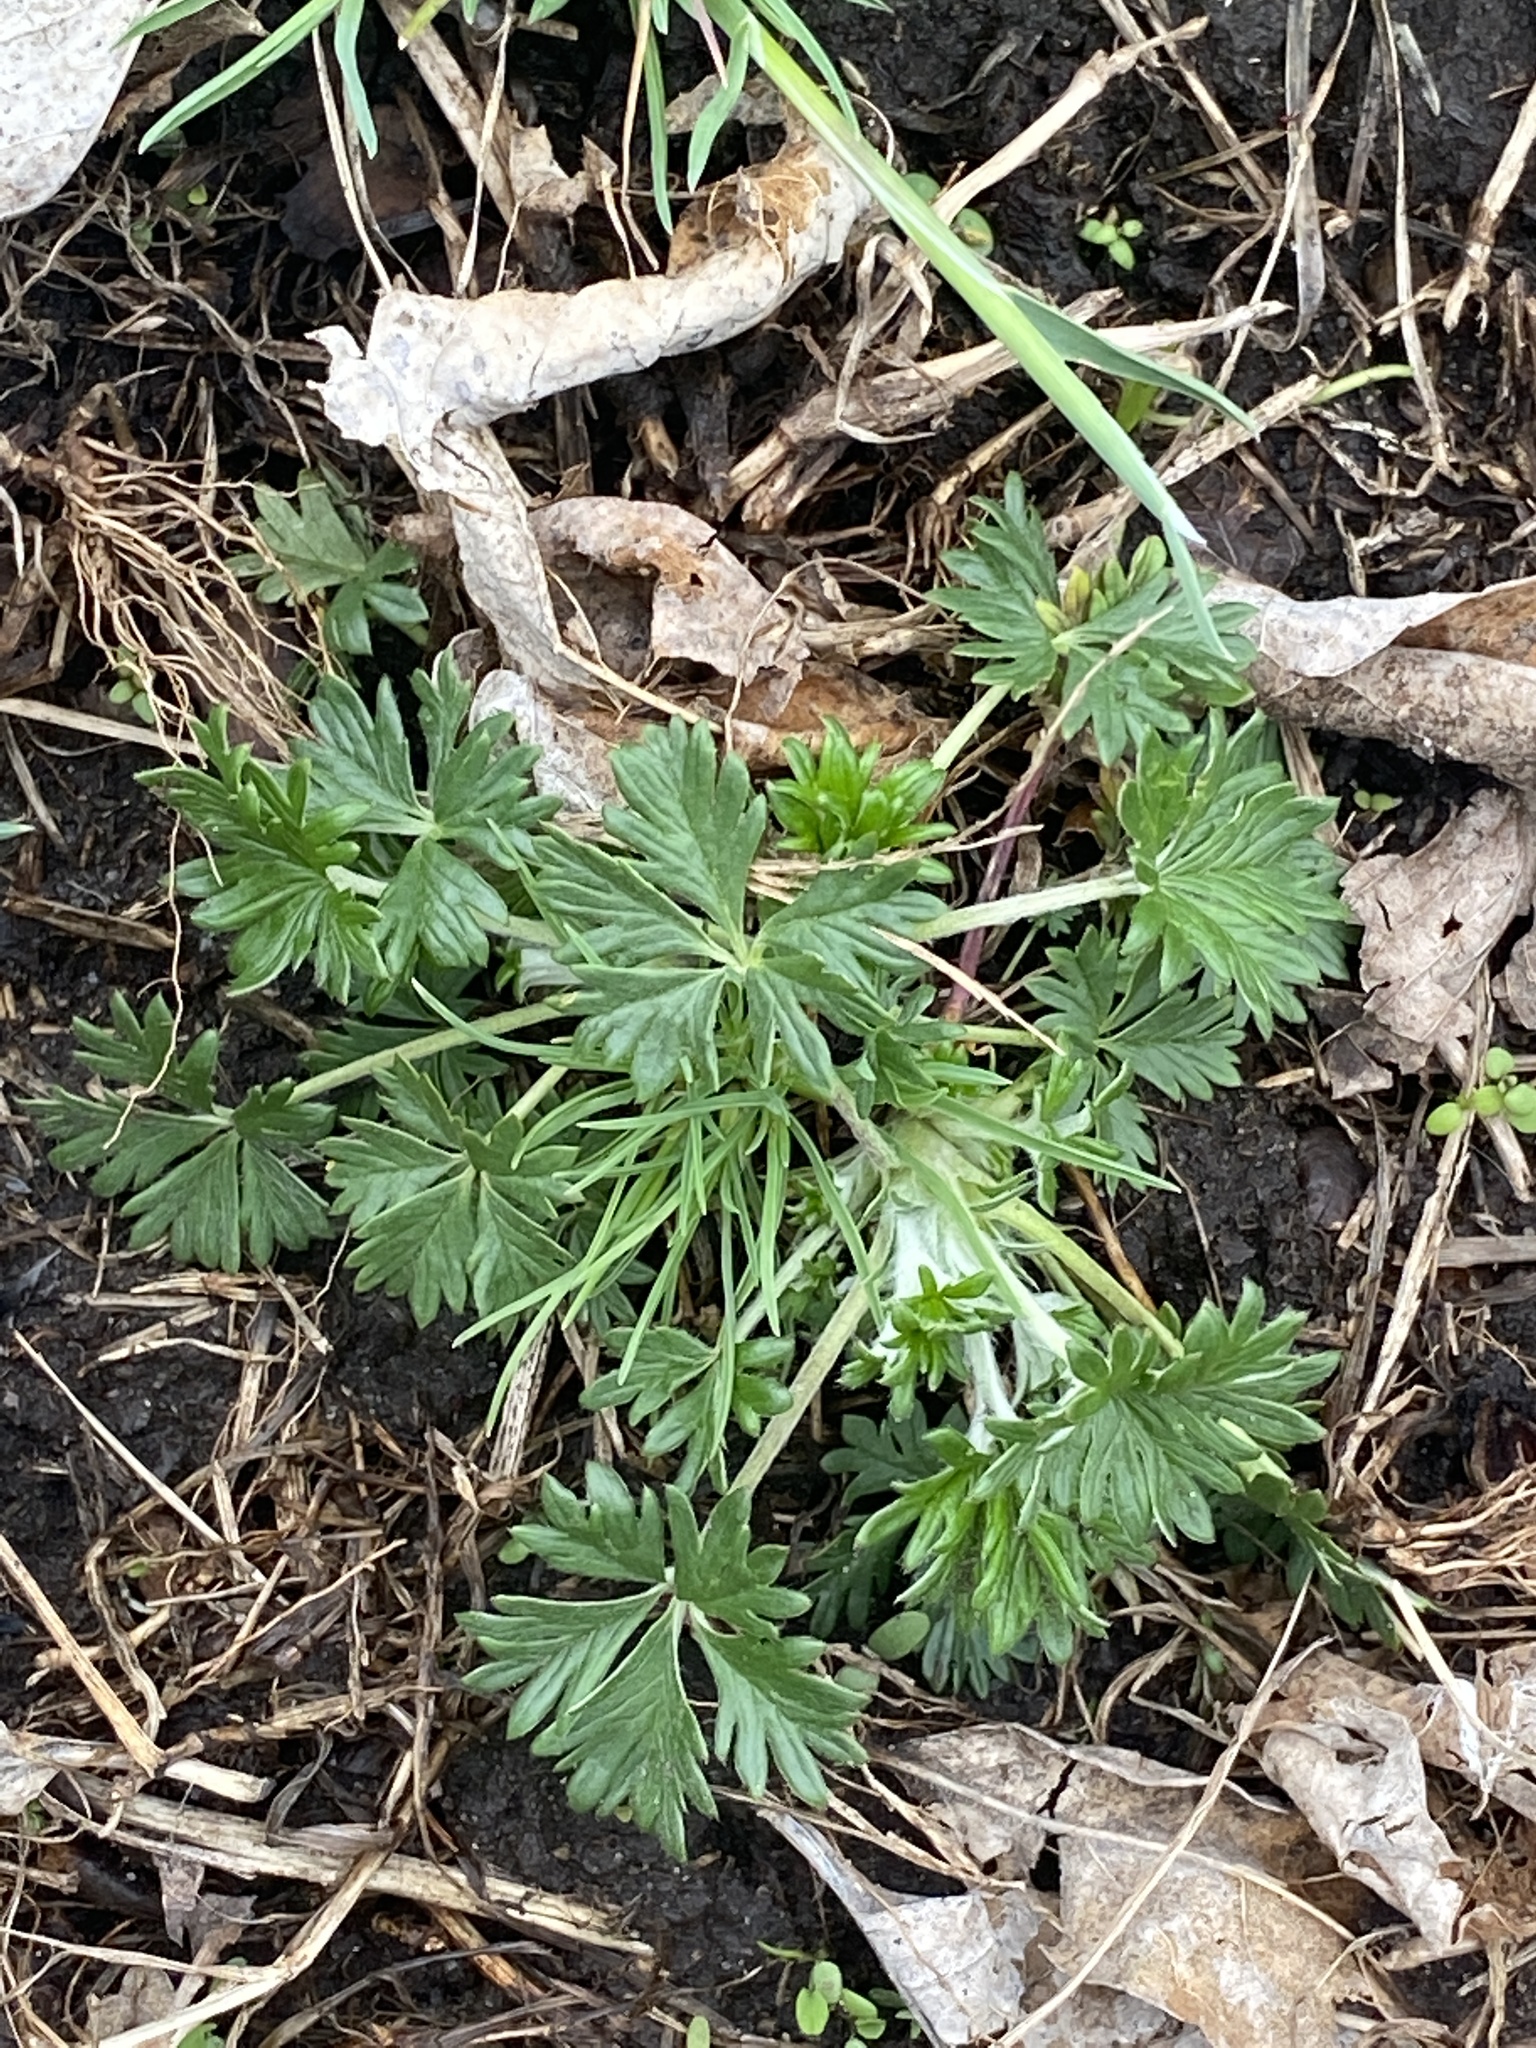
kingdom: Plantae
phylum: Tracheophyta
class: Magnoliopsida
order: Rosales
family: Rosaceae
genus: Potentilla
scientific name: Potentilla argentea
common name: Hoary cinquefoil
